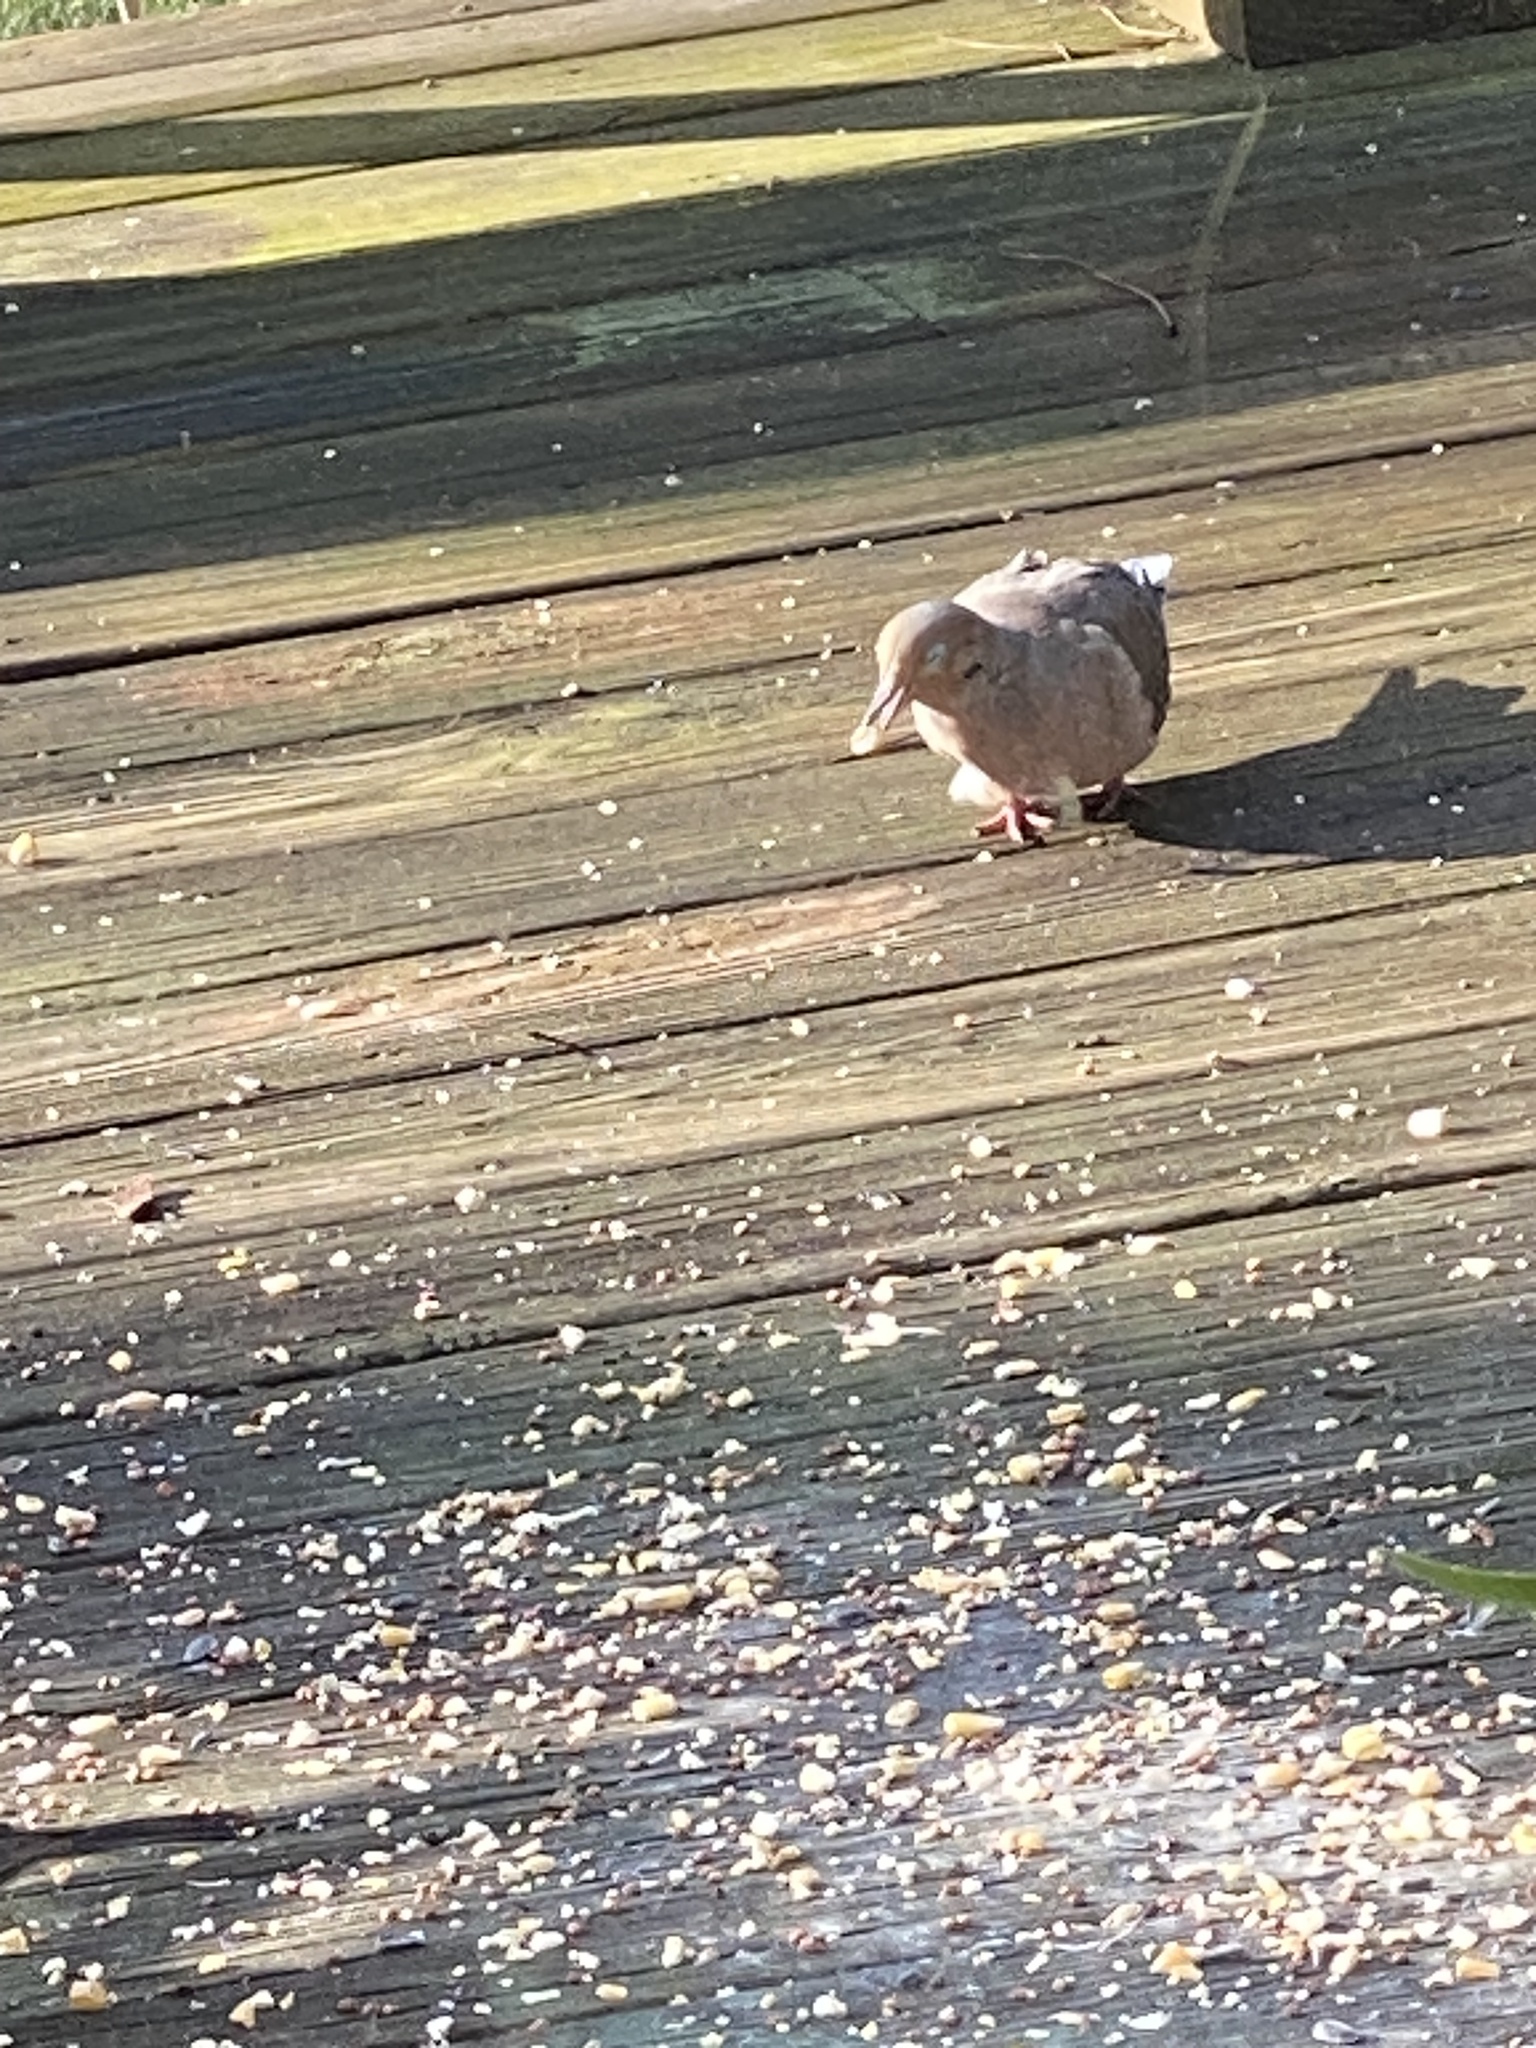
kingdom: Animalia
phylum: Chordata
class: Aves
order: Columbiformes
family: Columbidae
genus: Zenaida
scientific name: Zenaida macroura
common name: Mourning dove
